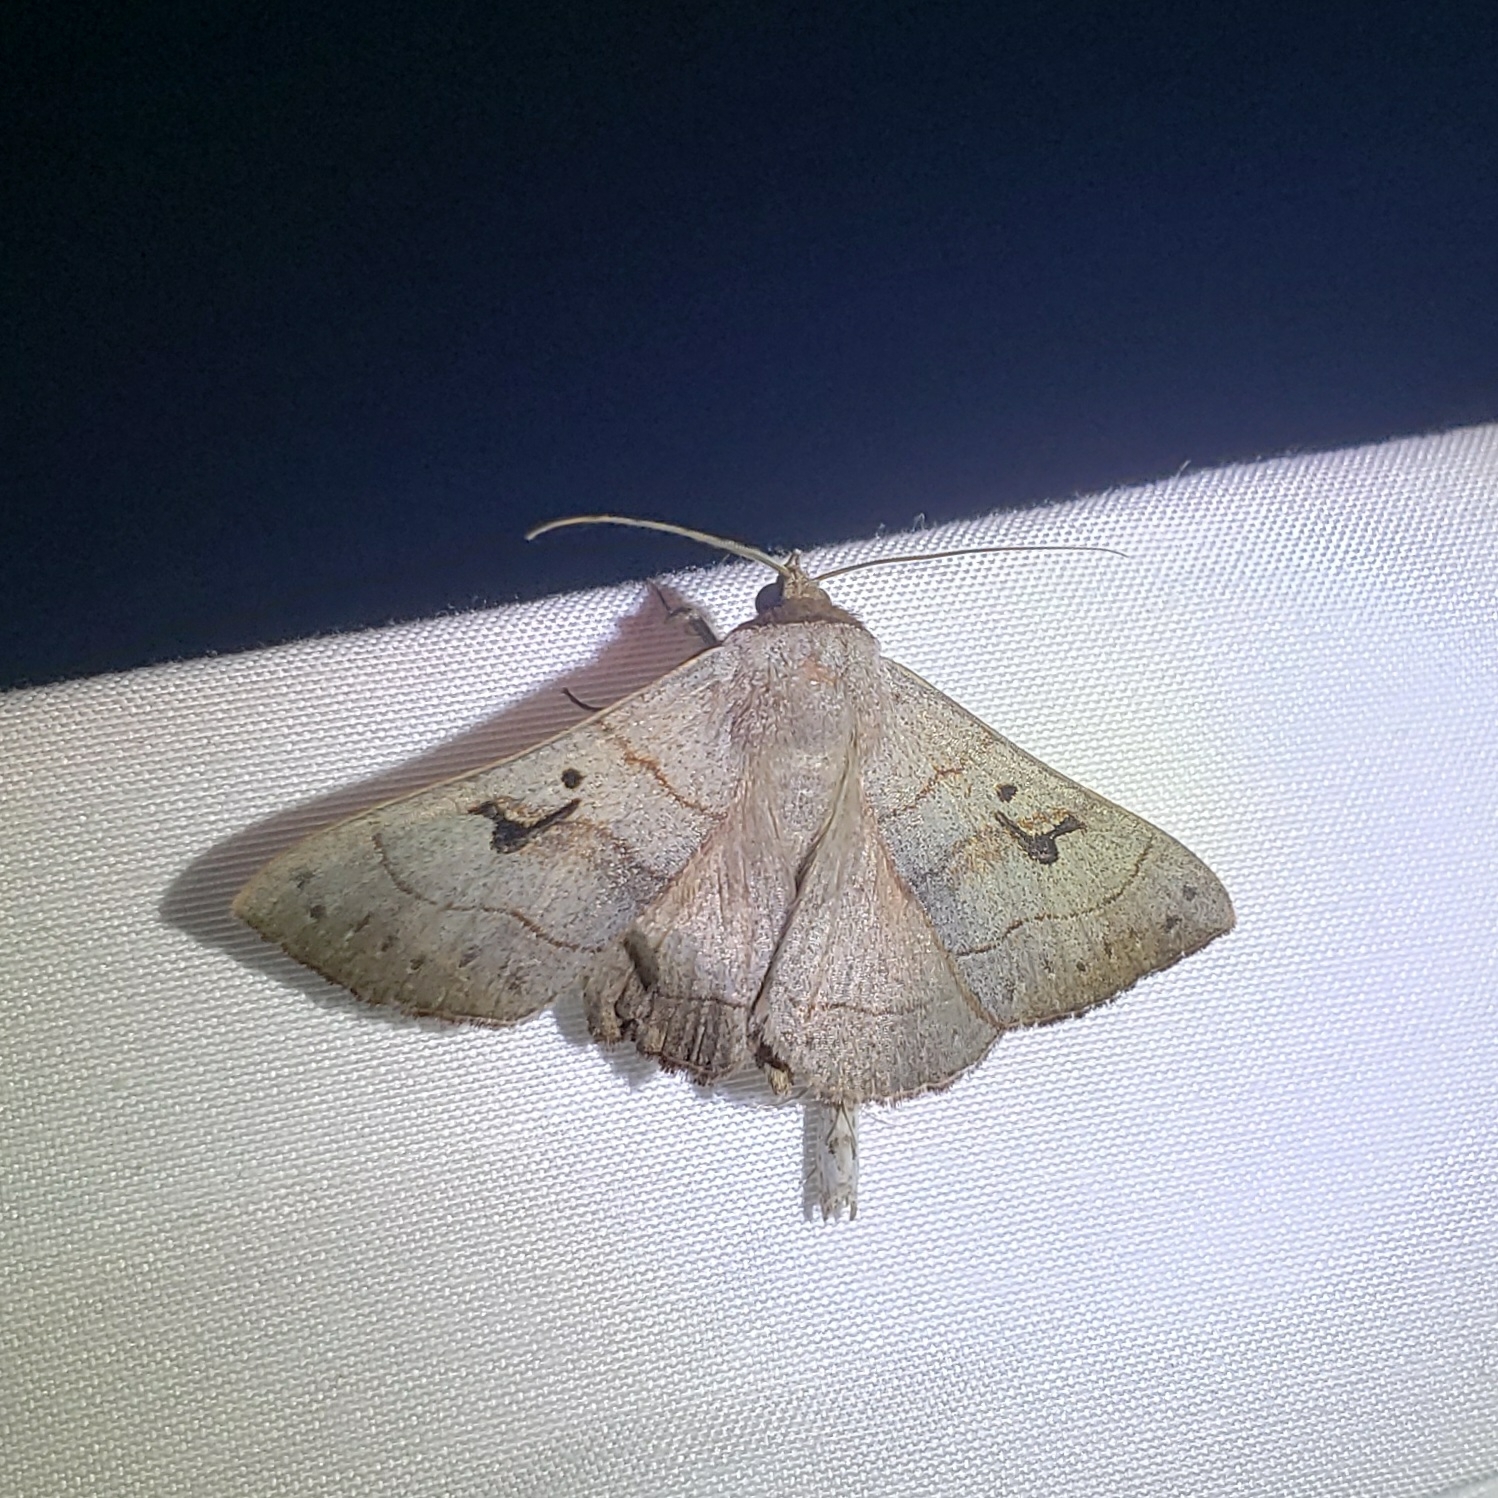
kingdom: Animalia
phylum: Arthropoda
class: Insecta
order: Lepidoptera
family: Erebidae
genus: Panopoda
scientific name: Panopoda carneicosta
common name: Brown panopoda moth
